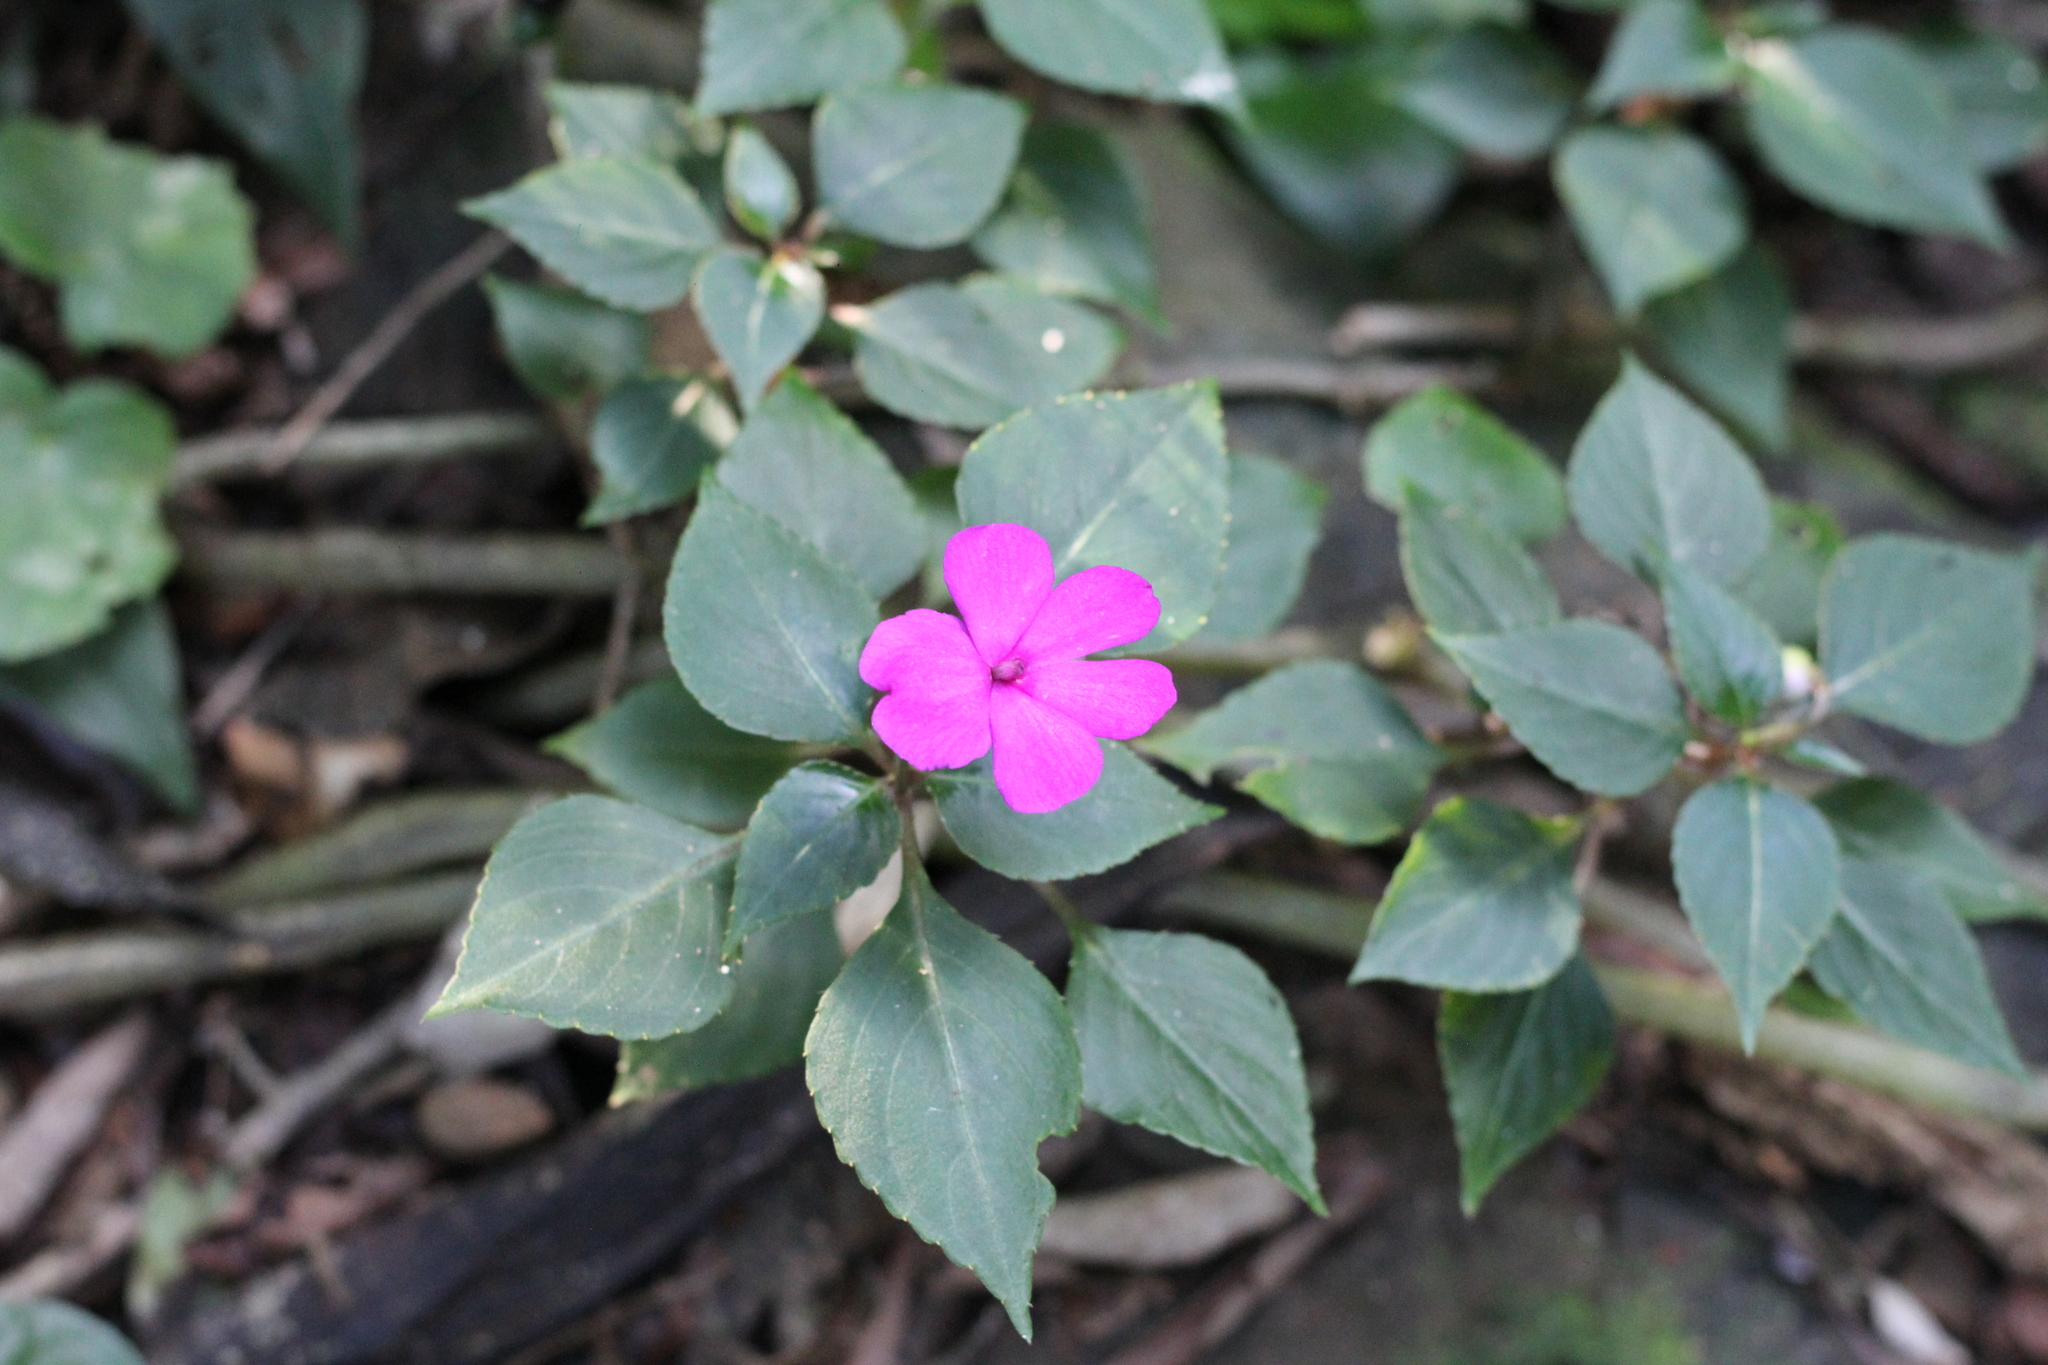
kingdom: Plantae
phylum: Tracheophyta
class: Magnoliopsida
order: Ericales
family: Balsaminaceae
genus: Impatiens
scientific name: Impatiens walleriana
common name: Buzzy lizzy
